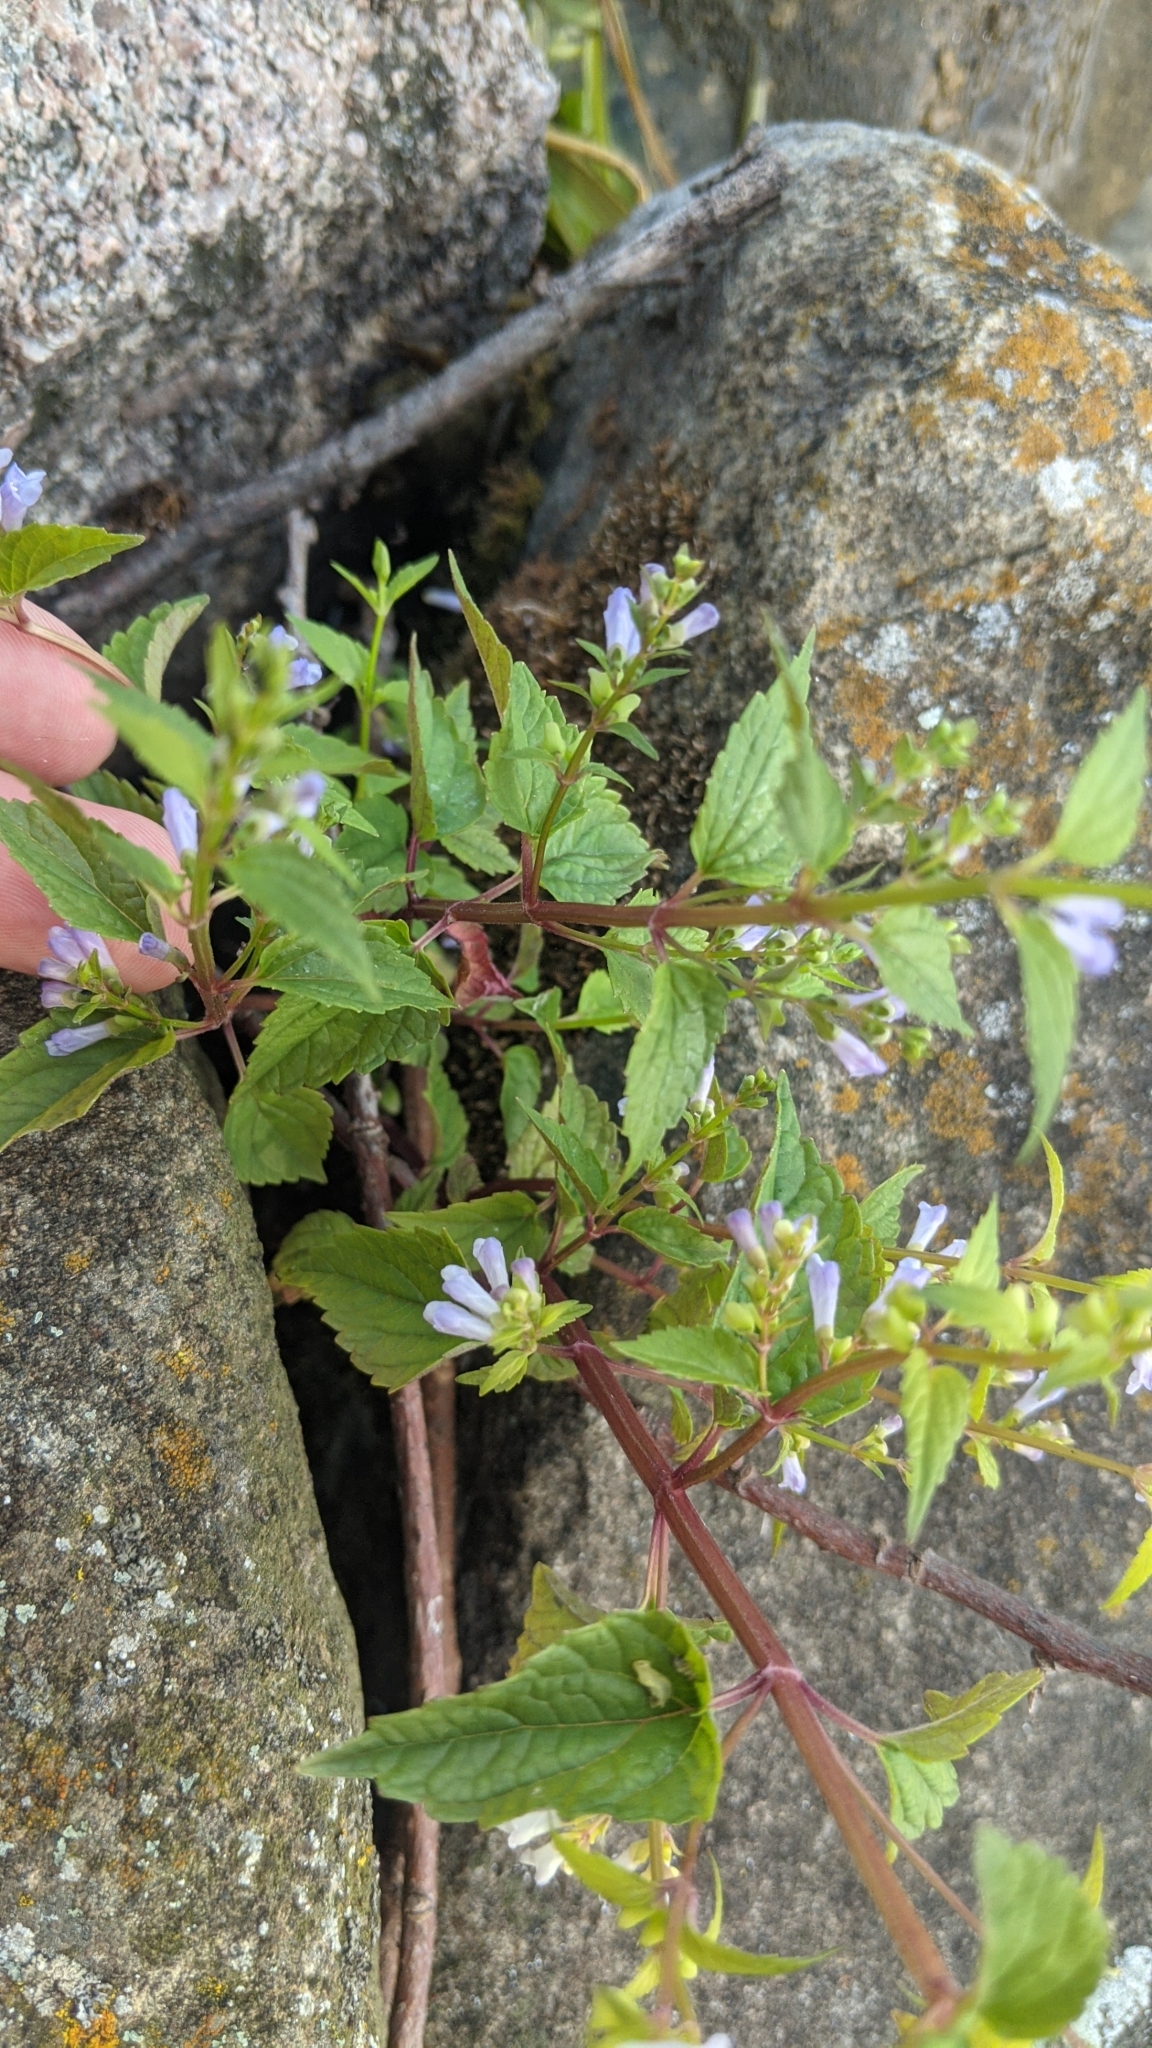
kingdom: Plantae
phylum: Tracheophyta
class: Magnoliopsida
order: Lamiales
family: Lamiaceae
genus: Scutellaria
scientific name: Scutellaria lateriflora
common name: Blue skullcap
